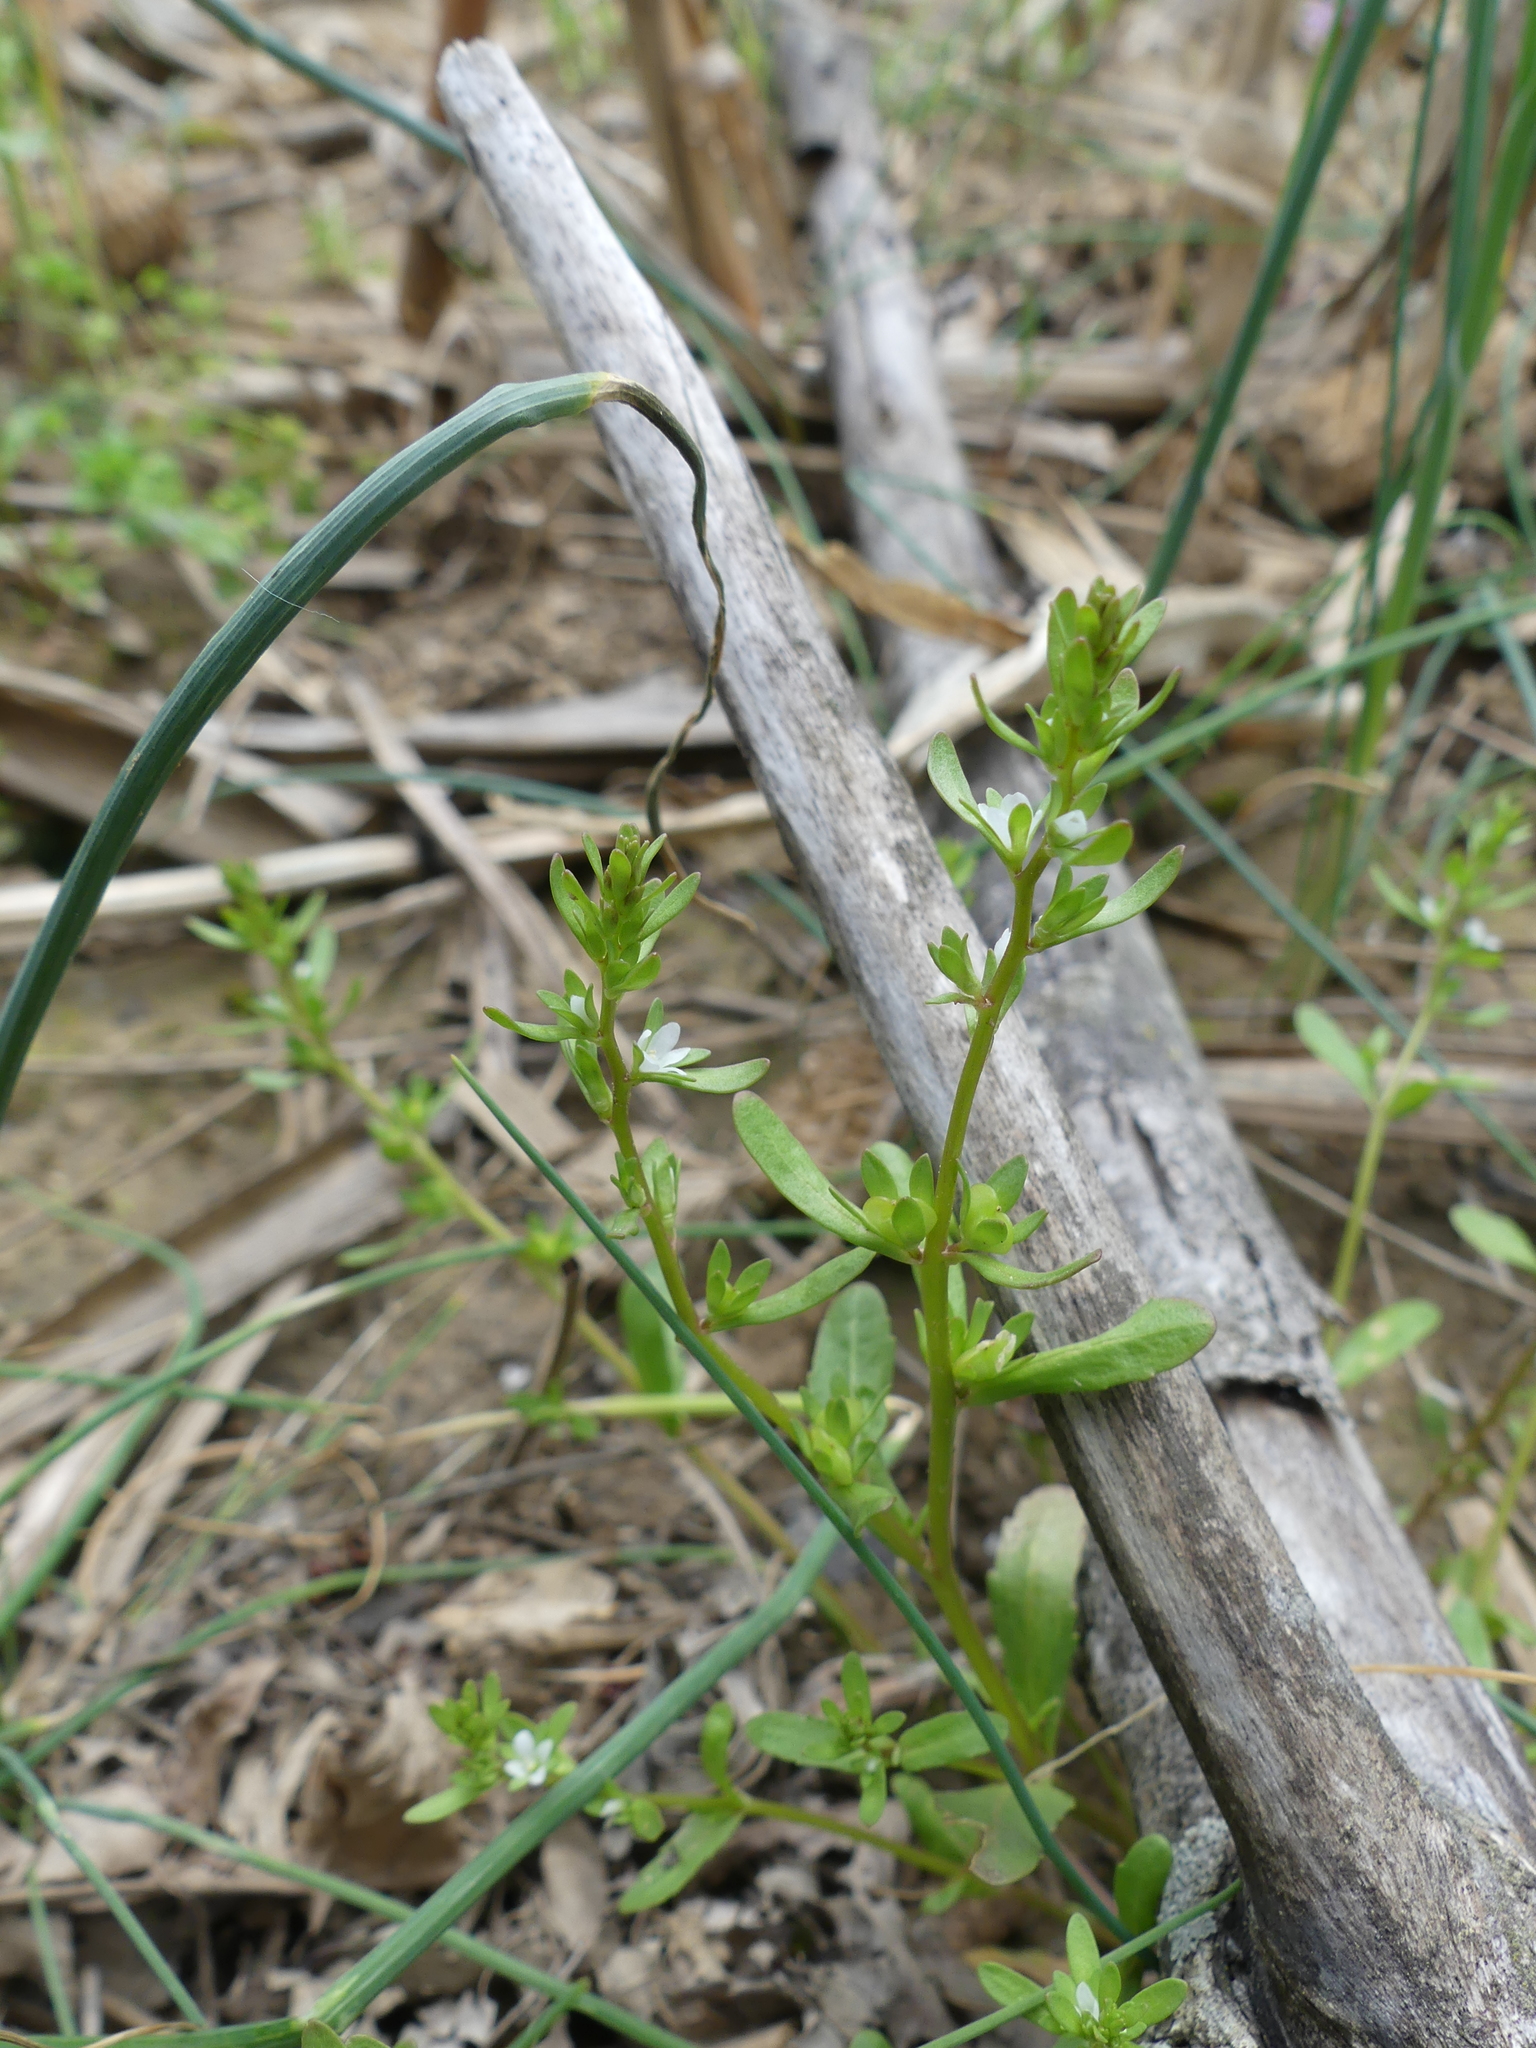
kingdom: Plantae
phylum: Tracheophyta
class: Magnoliopsida
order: Lamiales
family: Plantaginaceae
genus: Veronica
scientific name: Veronica peregrina
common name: Neckweed
